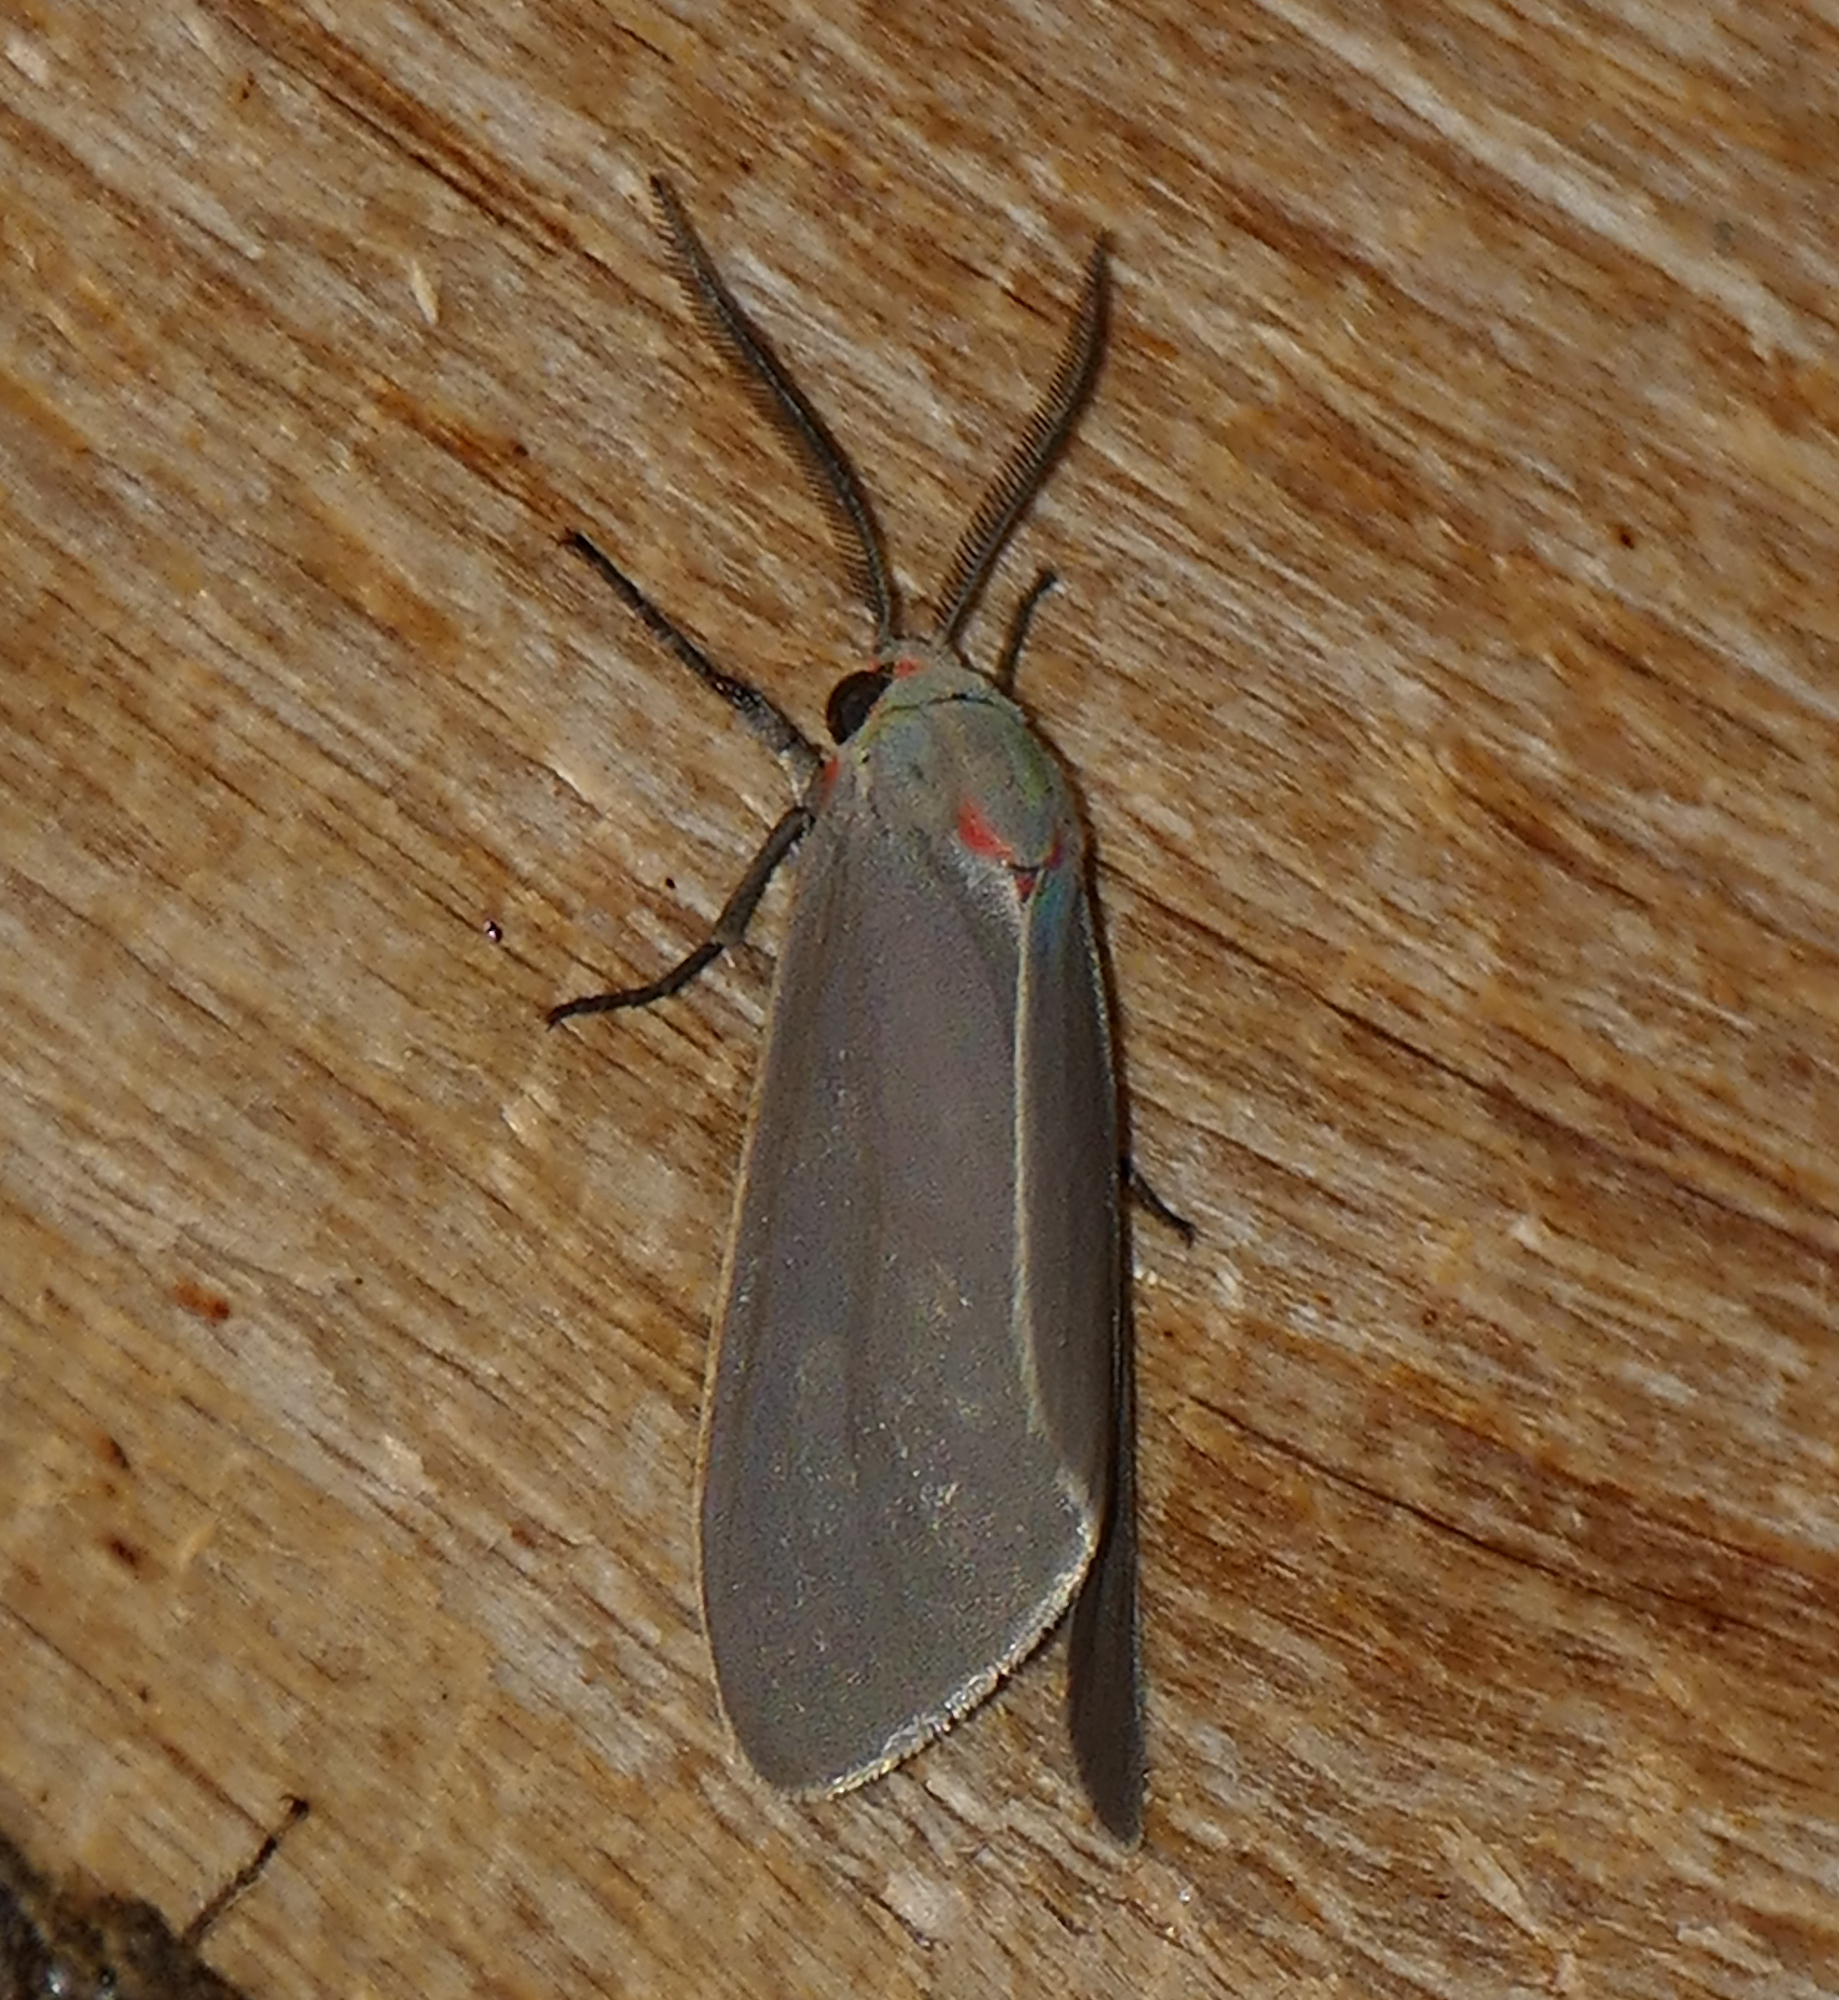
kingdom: Animalia
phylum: Arthropoda
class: Insecta
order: Lepidoptera
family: Erebidae
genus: Pygarctia
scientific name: Pygarctia murina
